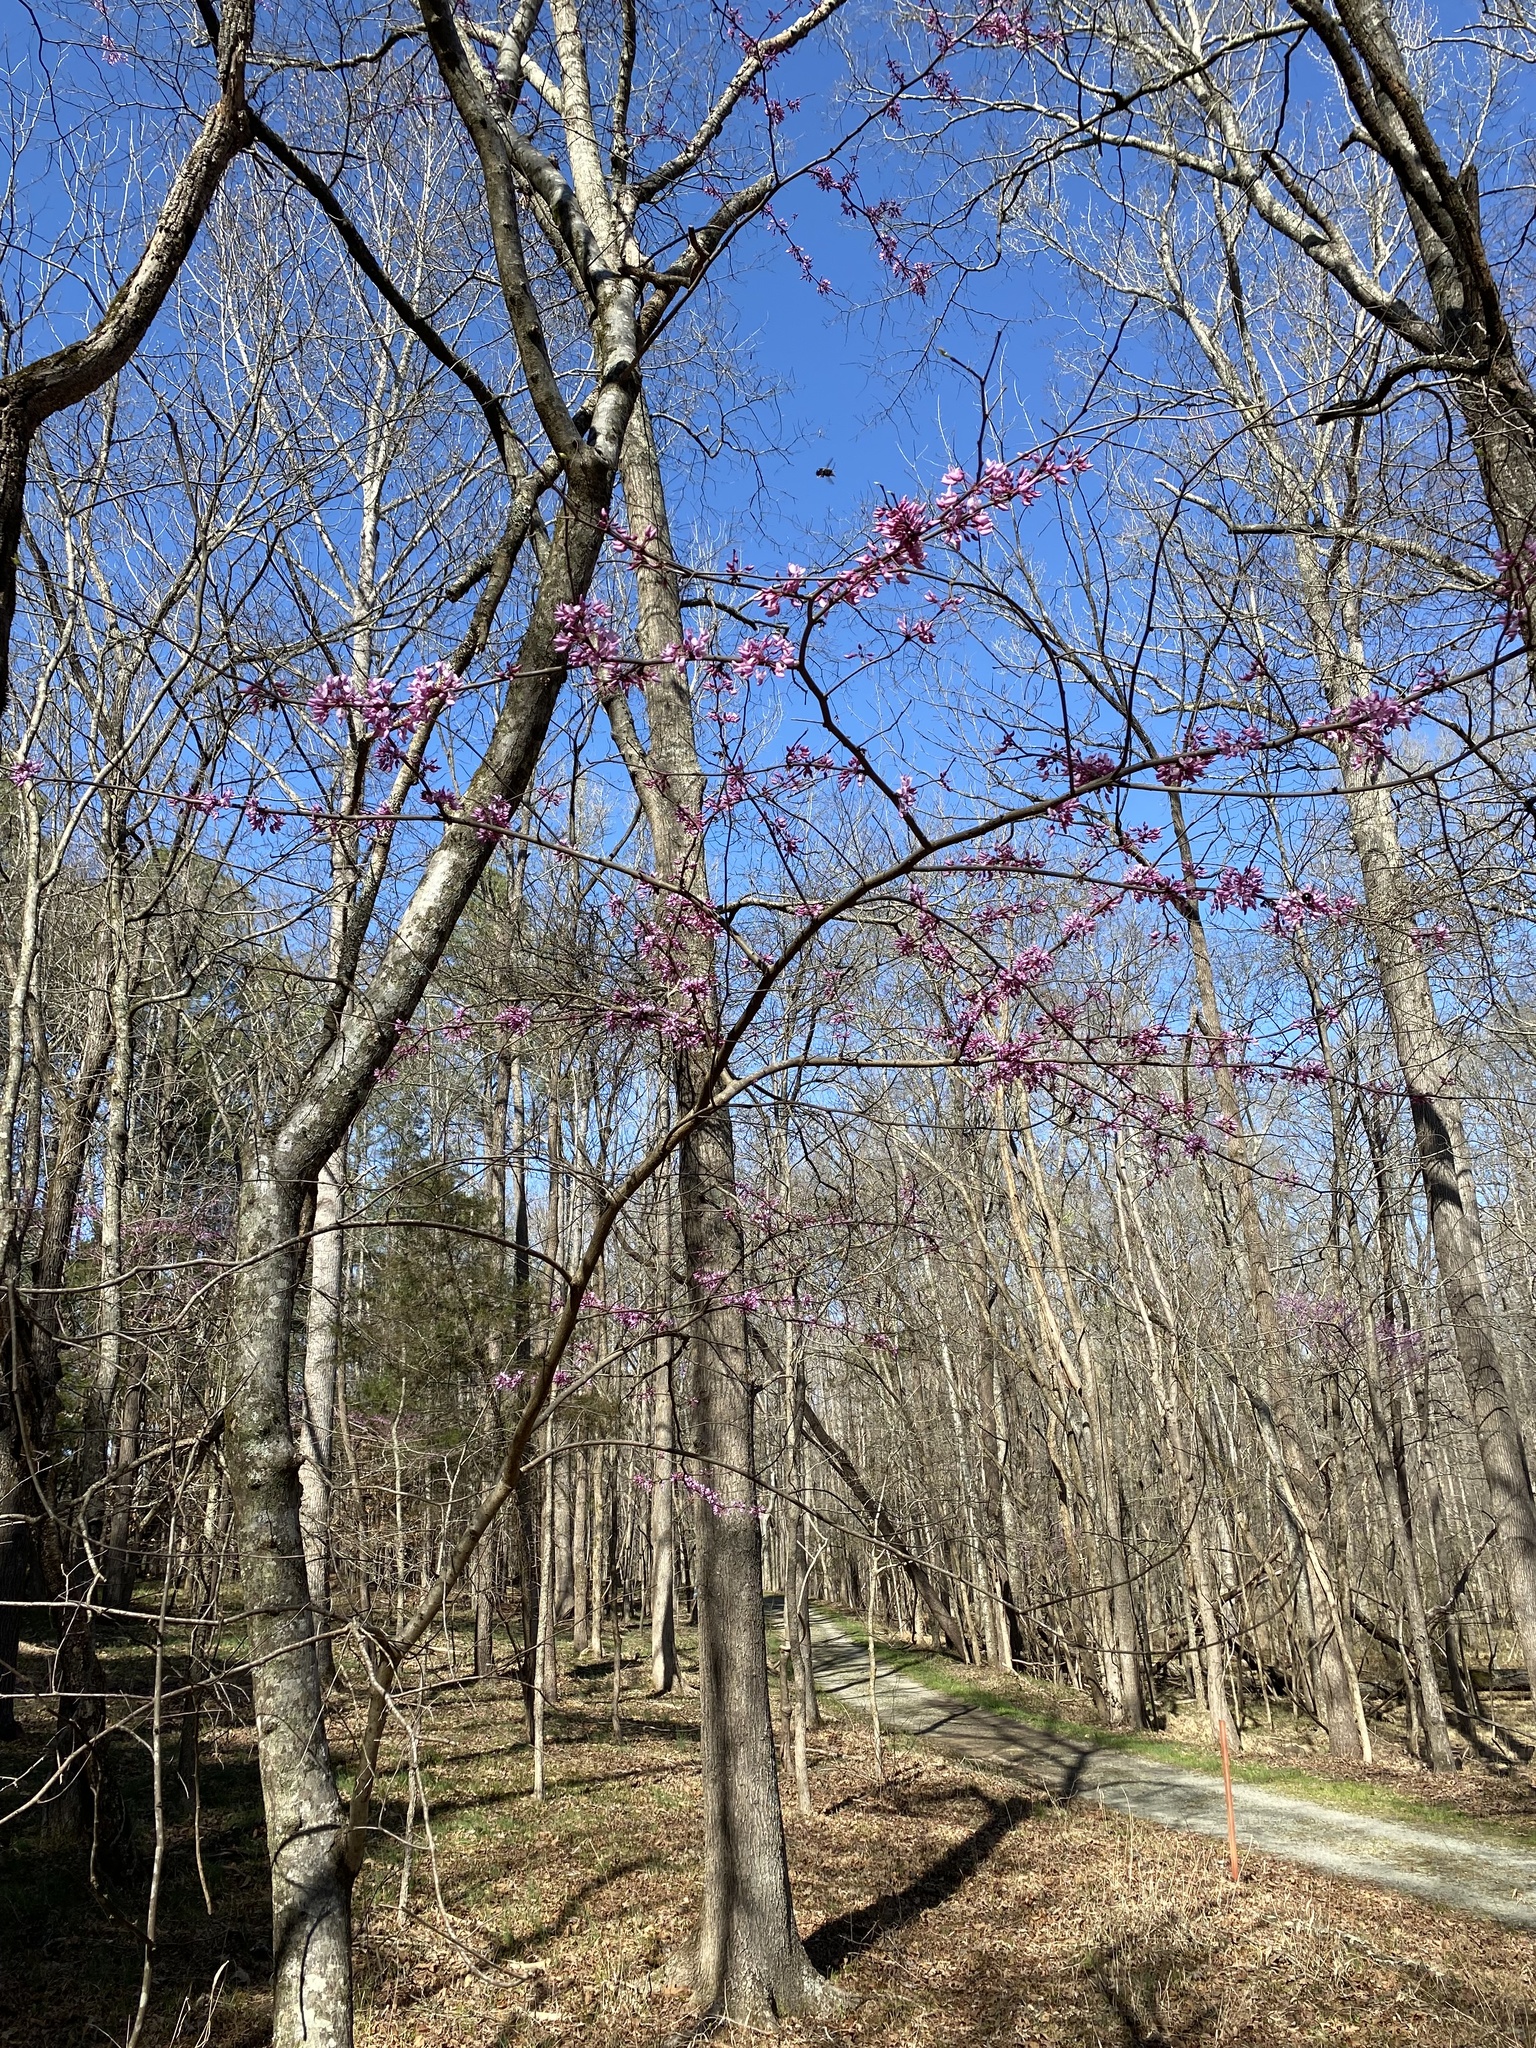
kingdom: Plantae
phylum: Tracheophyta
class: Magnoliopsida
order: Fabales
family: Fabaceae
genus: Cercis
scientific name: Cercis canadensis
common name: Eastern redbud
